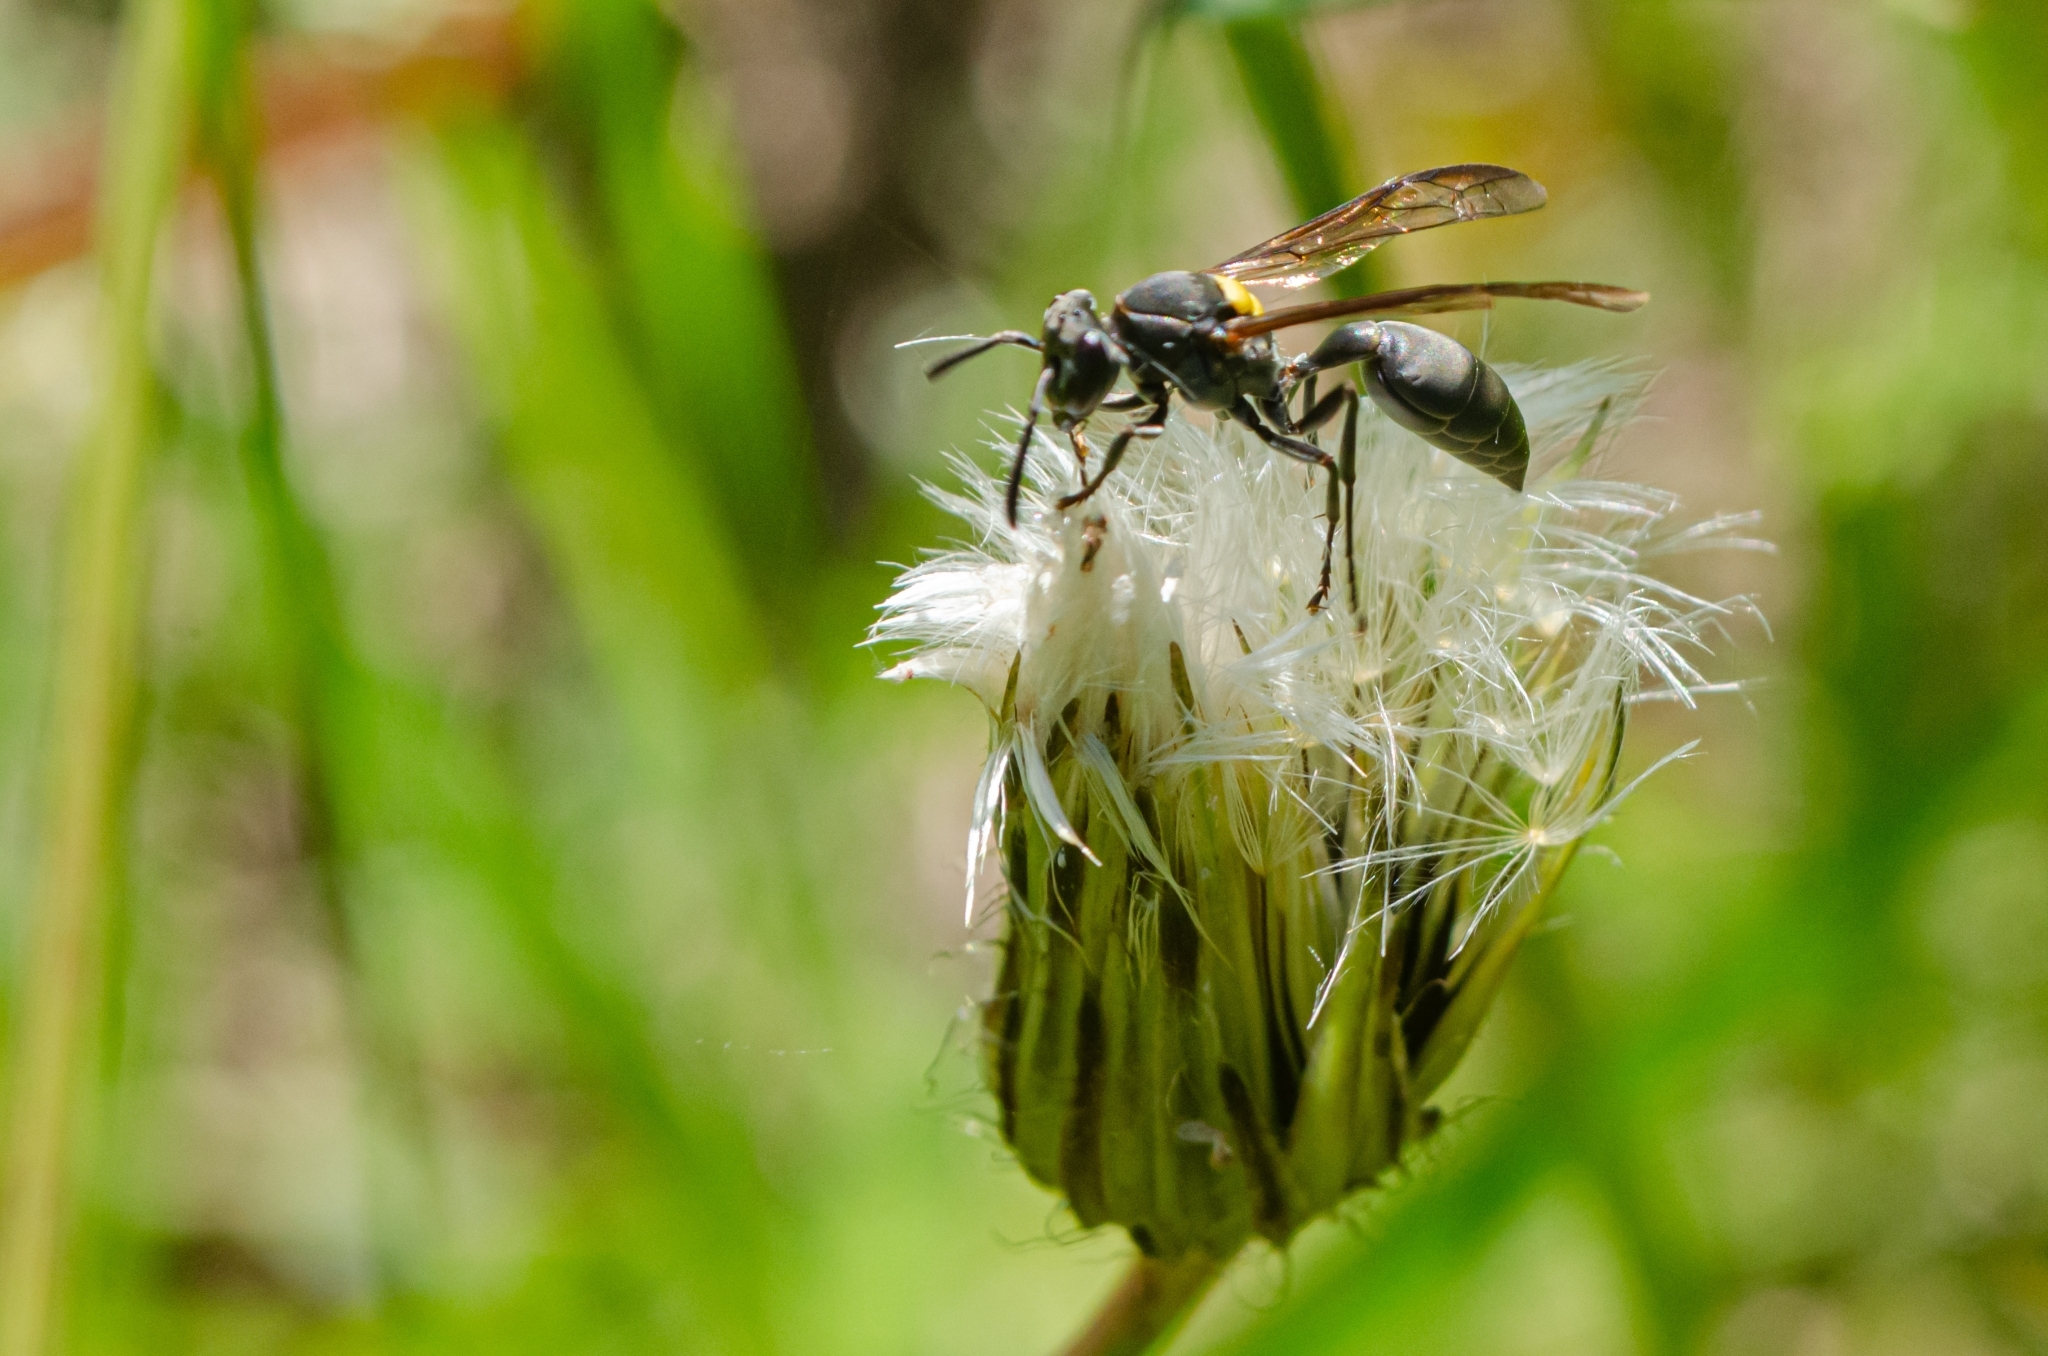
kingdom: Animalia
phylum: Arthropoda
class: Insecta
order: Hymenoptera
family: Eumenidae
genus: Polybia
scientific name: Polybia scutellaris
